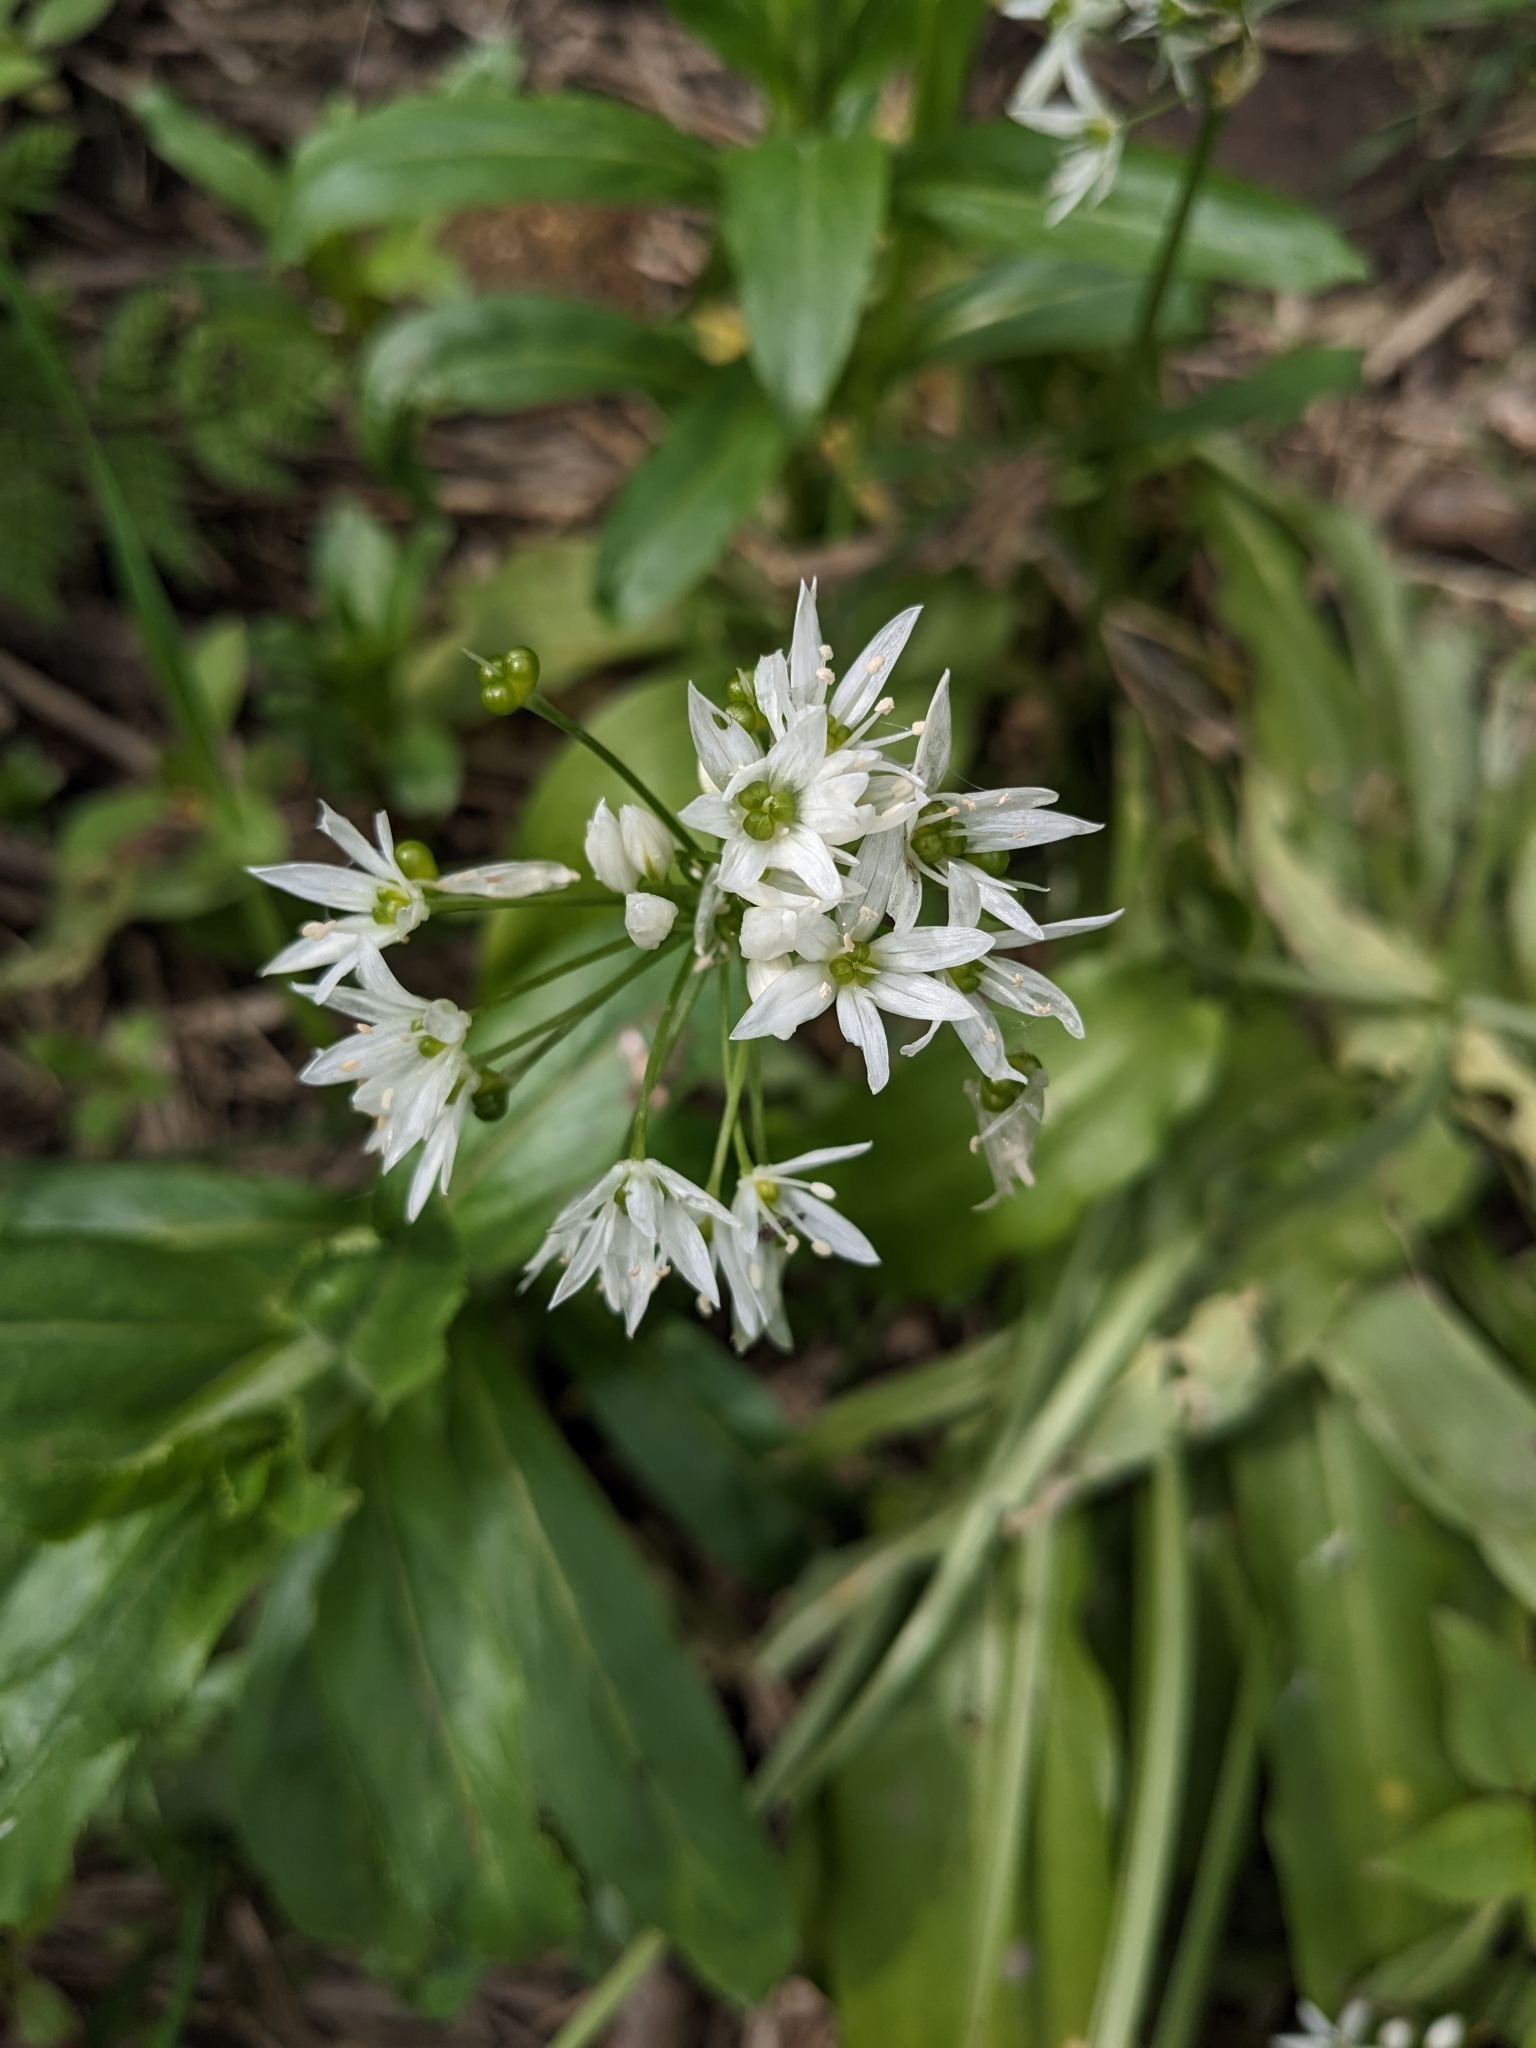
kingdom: Plantae
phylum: Tracheophyta
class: Liliopsida
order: Asparagales
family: Amaryllidaceae
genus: Allium
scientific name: Allium ursinum
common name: Ramsons
